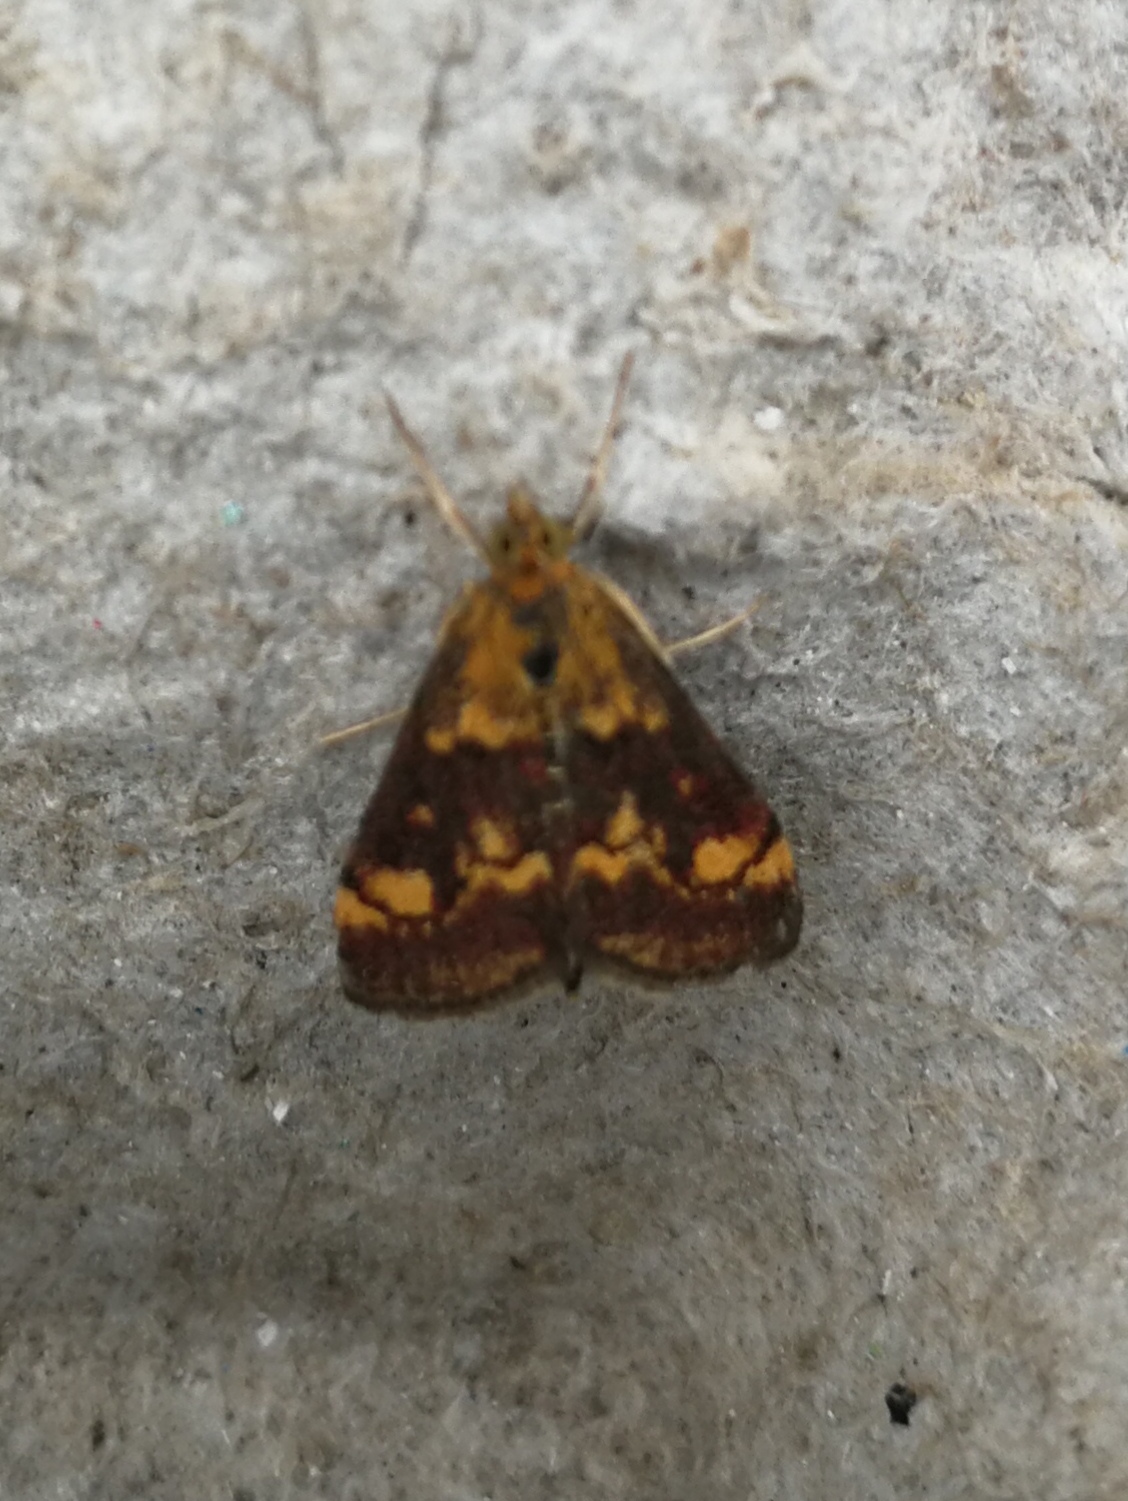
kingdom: Animalia
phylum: Arthropoda
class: Insecta
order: Lepidoptera
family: Crambidae
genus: Pyrausta
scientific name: Pyrausta aurata
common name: Small purple & gold
